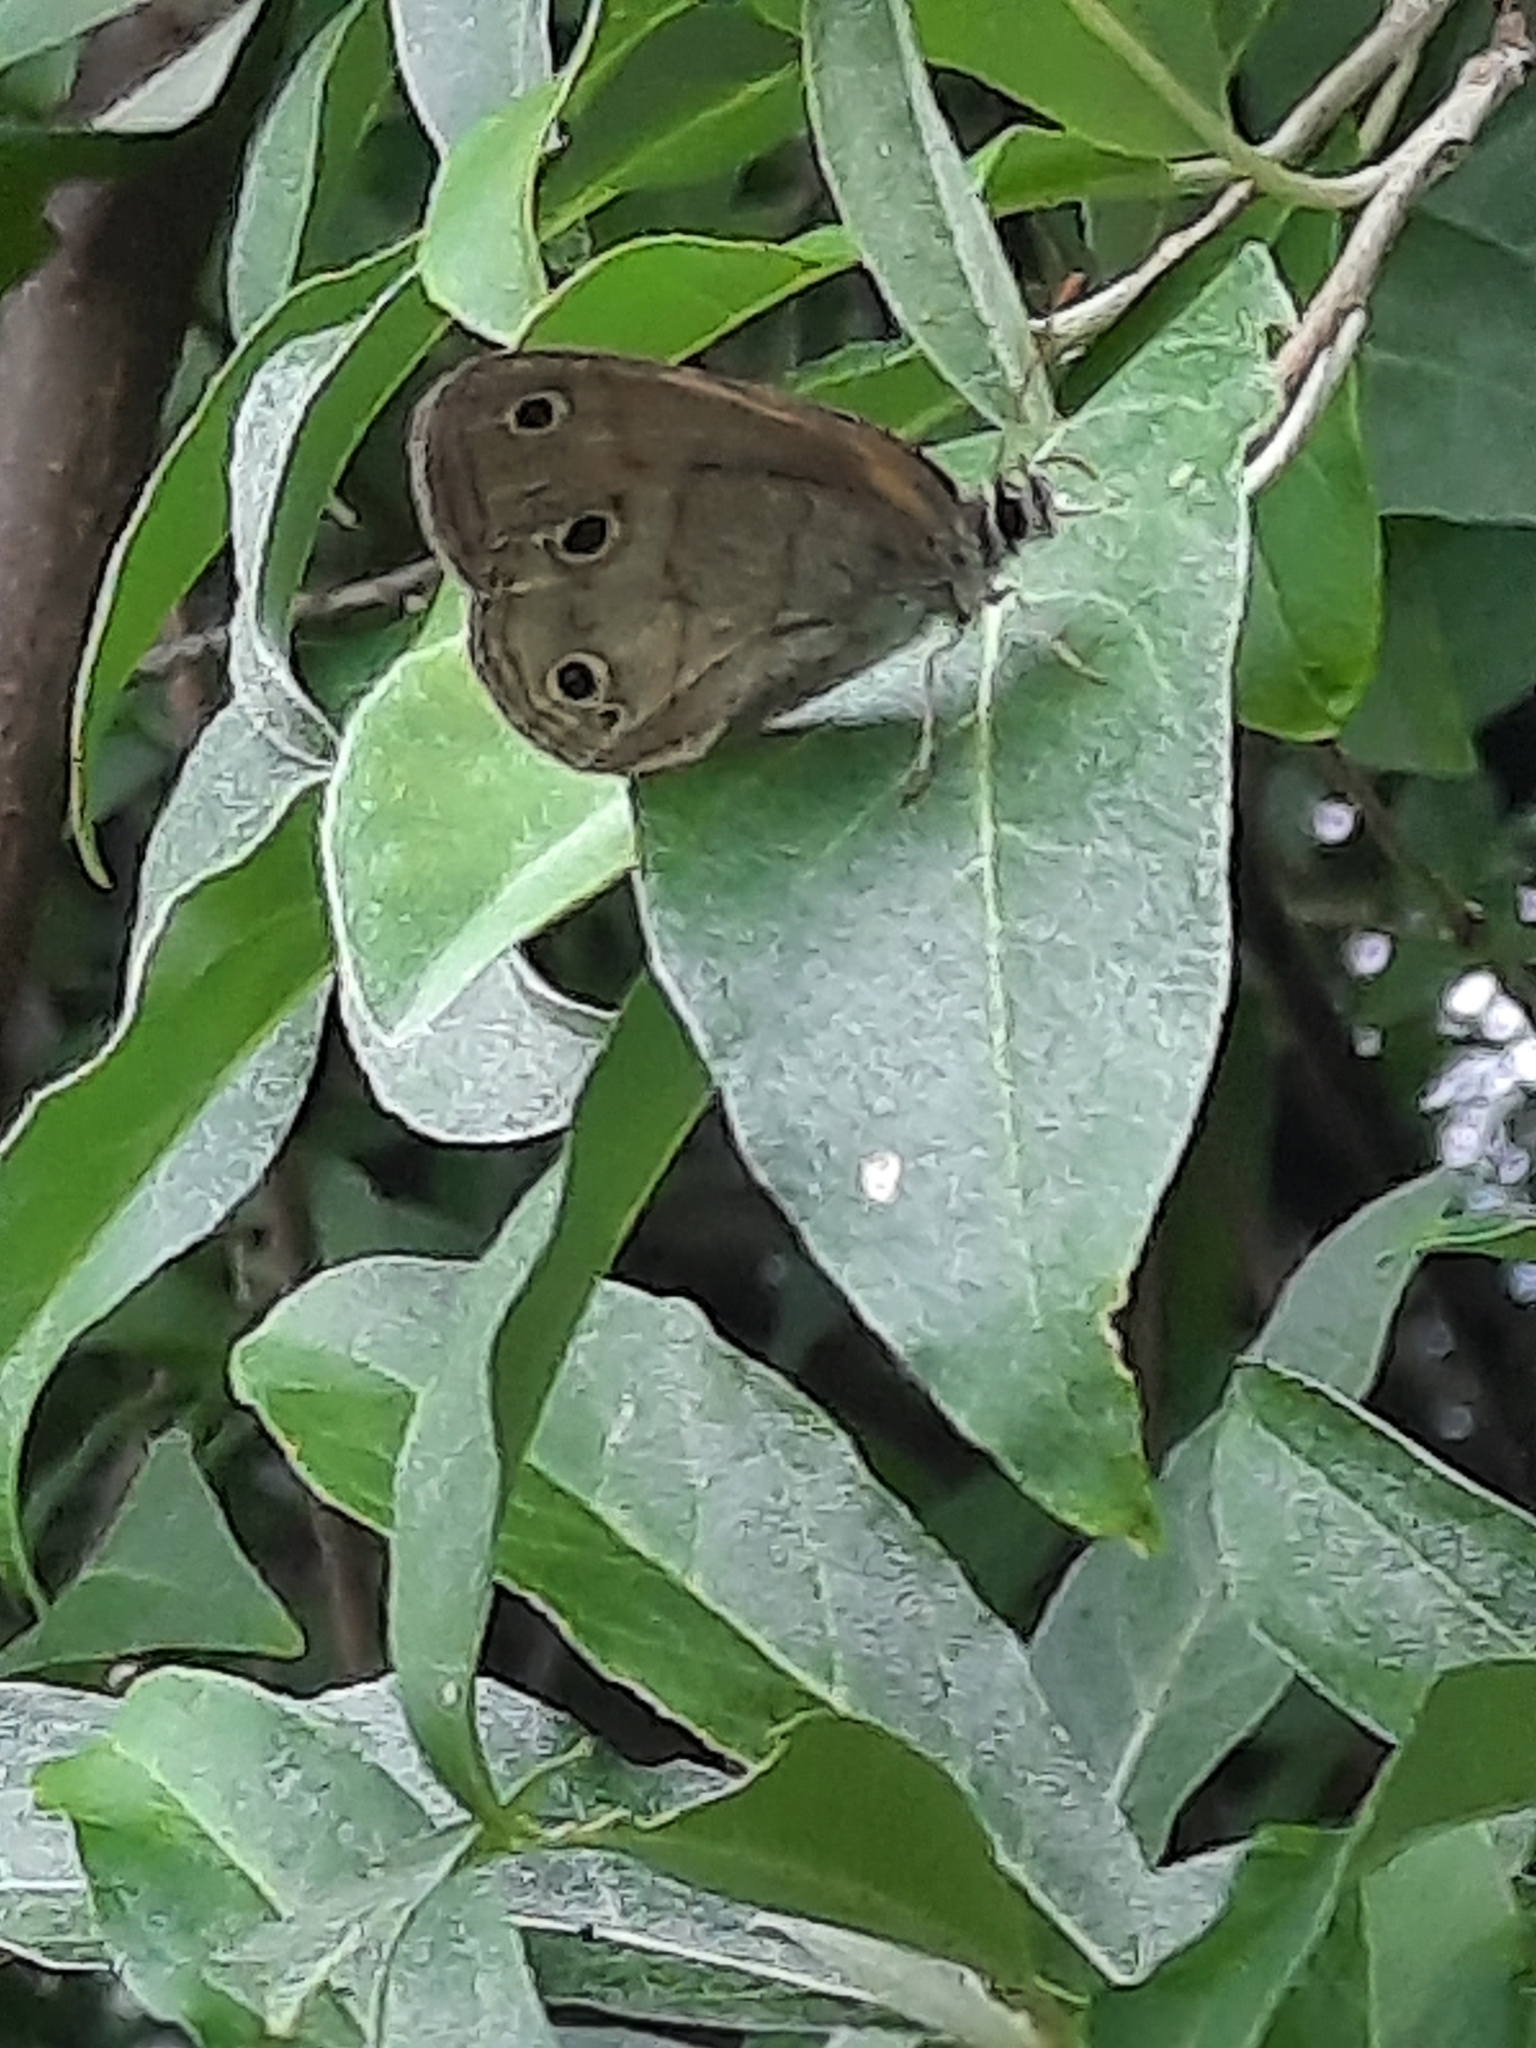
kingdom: Animalia
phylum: Arthropoda
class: Insecta
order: Lepidoptera
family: Nymphalidae
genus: Euptychia
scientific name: Euptychia cymela
